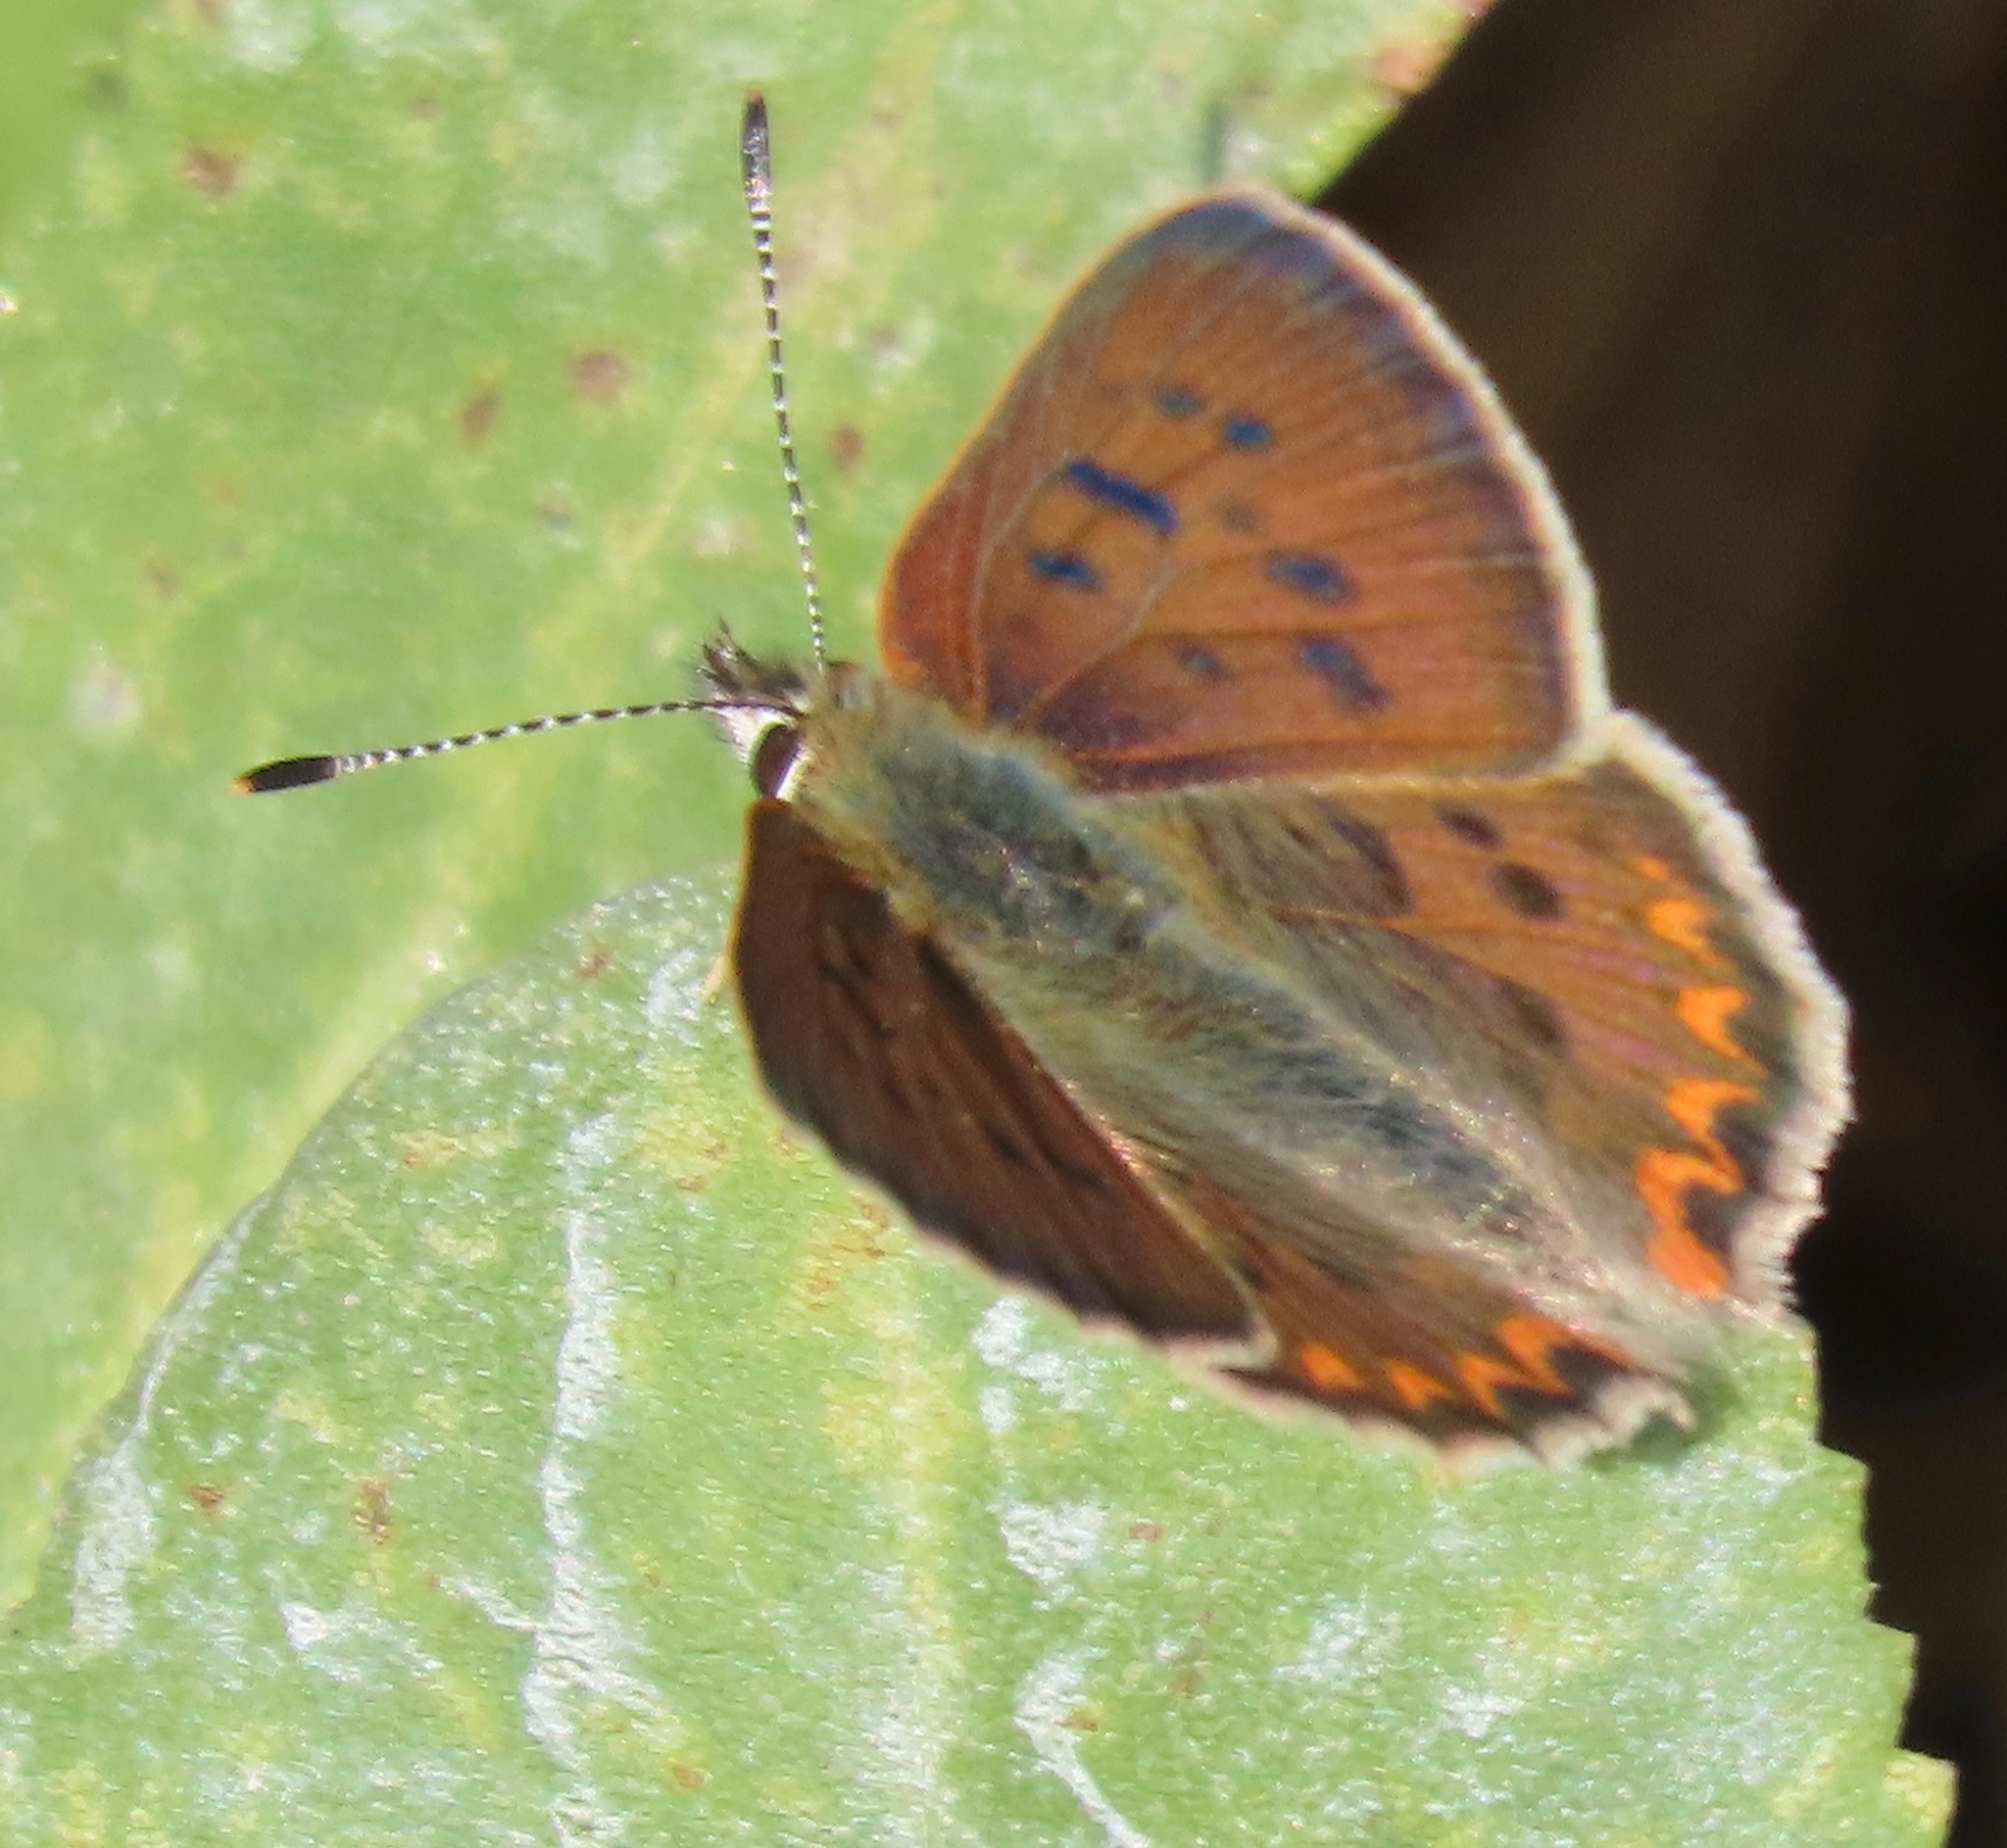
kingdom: Animalia
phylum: Arthropoda
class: Insecta
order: Lepidoptera
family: Lycaenidae
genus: Tharsalea
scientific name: Tharsalea helloides
